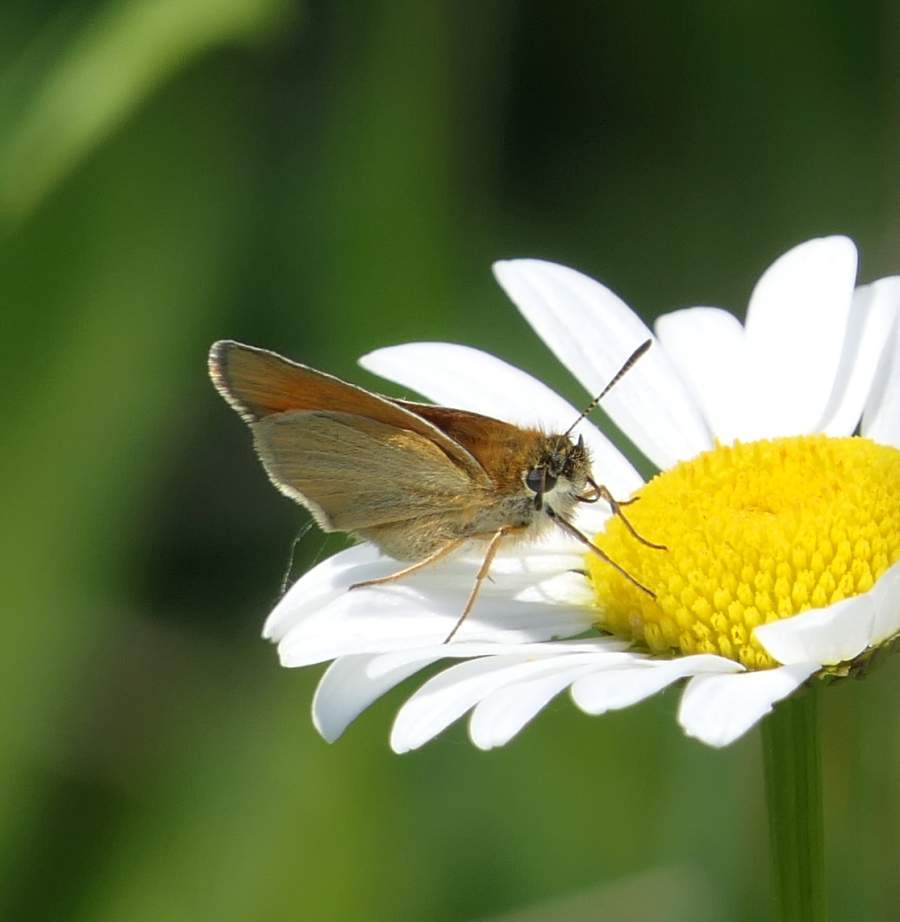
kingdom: Animalia
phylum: Arthropoda
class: Insecta
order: Lepidoptera
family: Hesperiidae
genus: Thymelicus
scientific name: Thymelicus lineola
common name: Essex skipper
